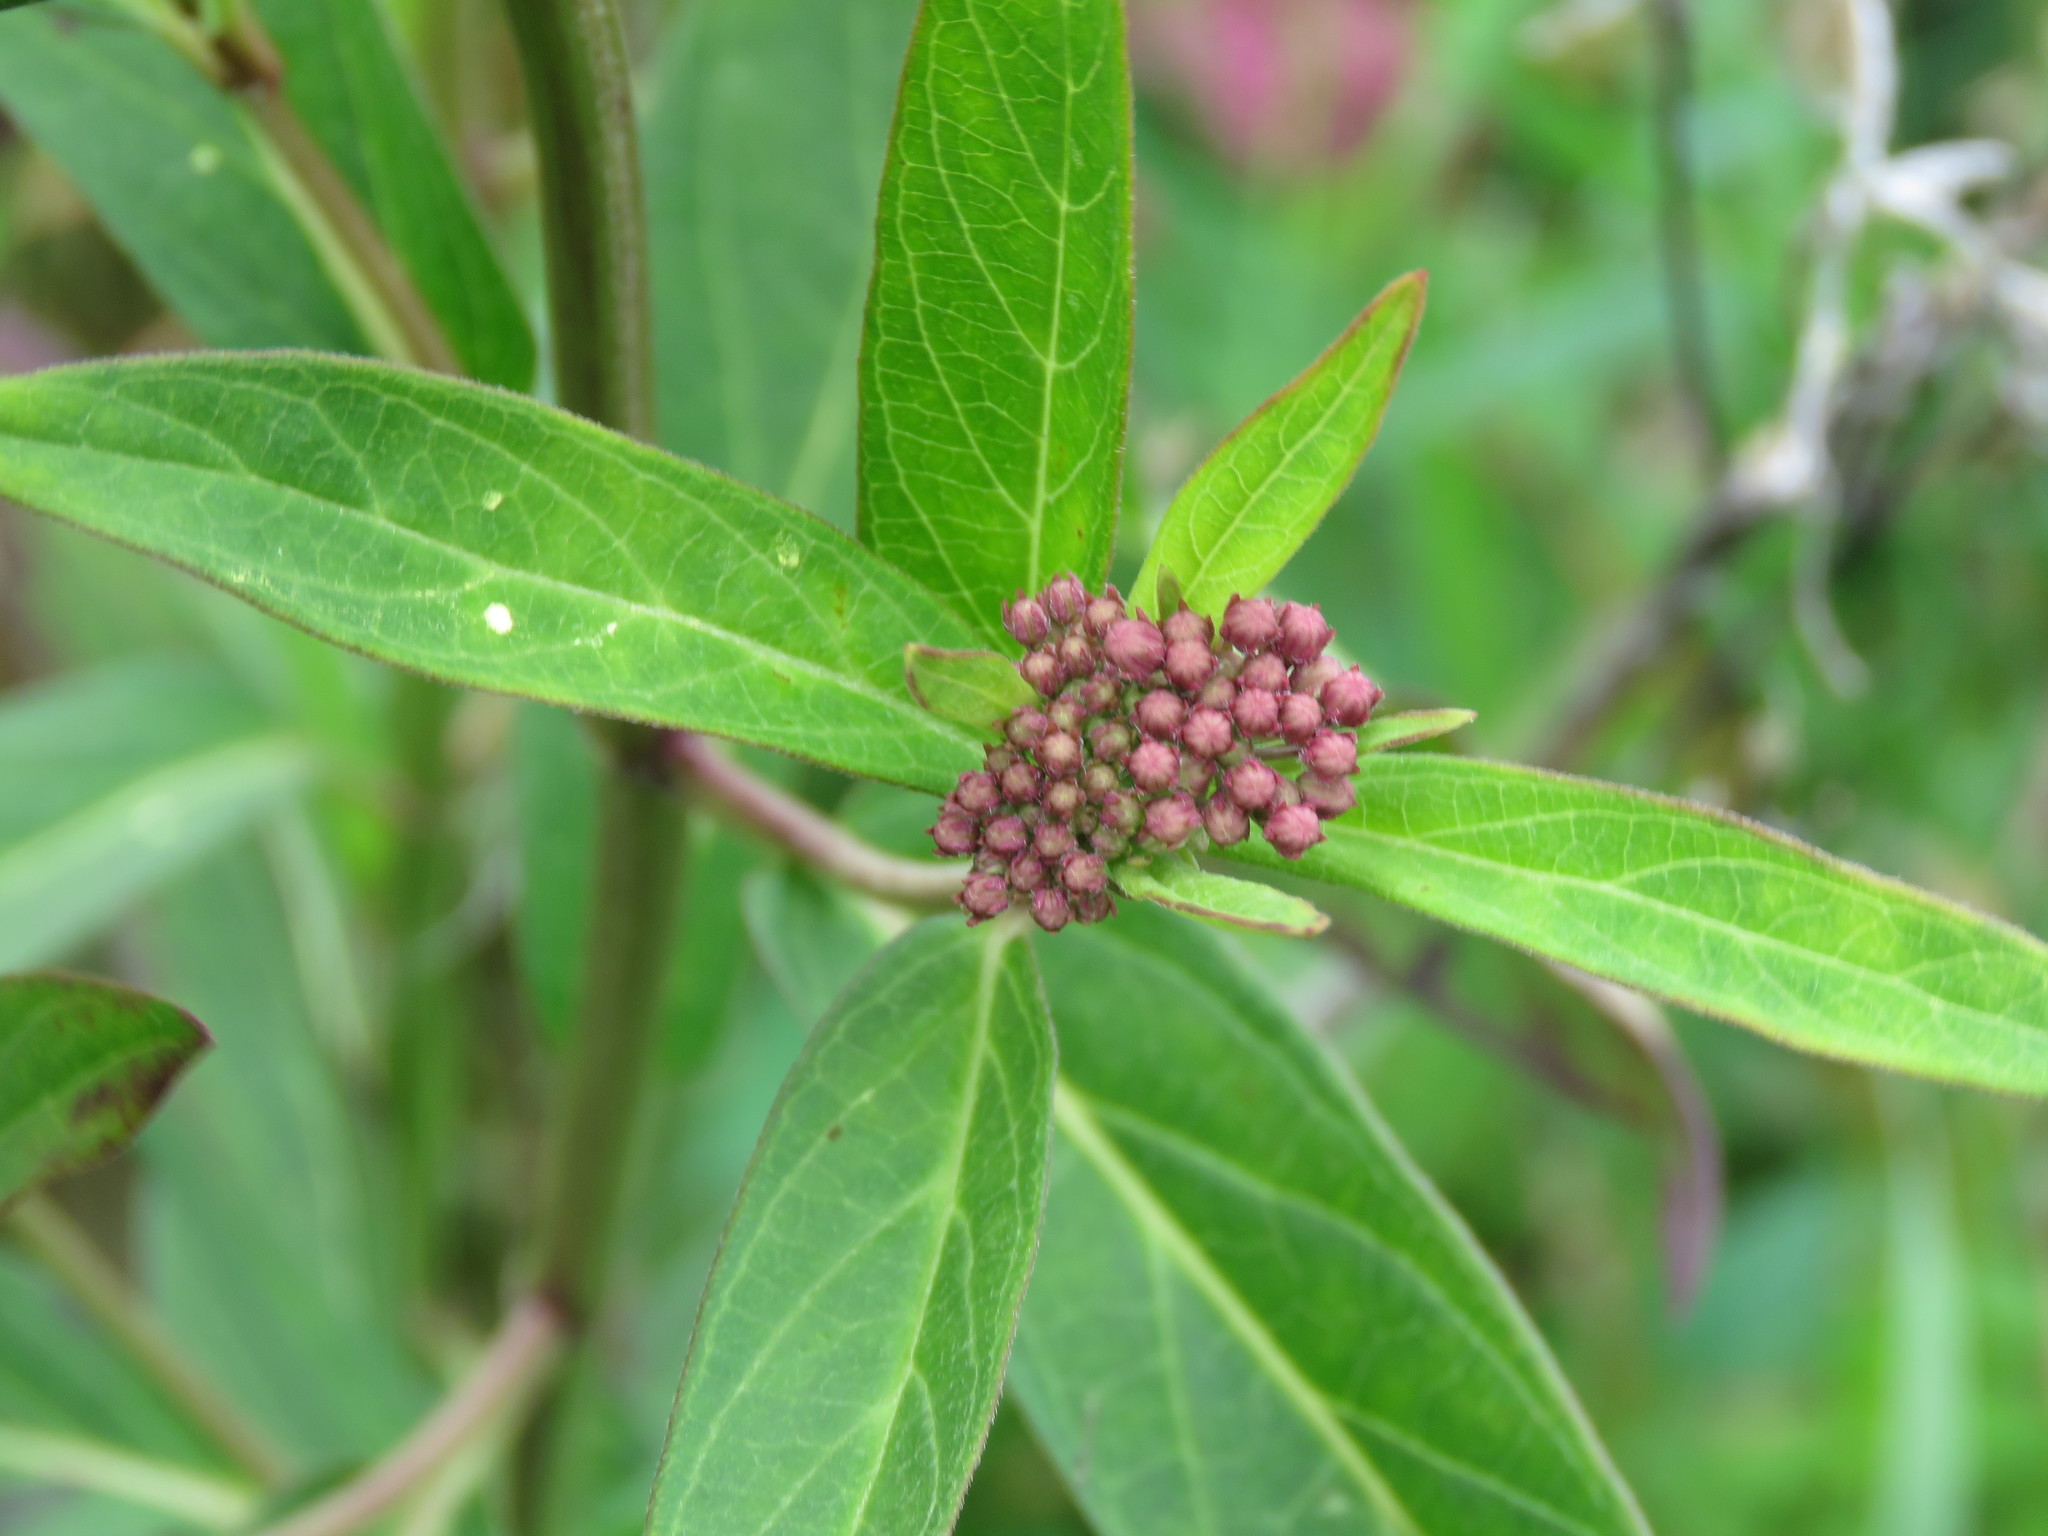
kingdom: Plantae
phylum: Tracheophyta
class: Magnoliopsida
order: Gentianales
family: Apocynaceae
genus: Asclepias
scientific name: Asclepias incarnata
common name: Swamp milkweed
